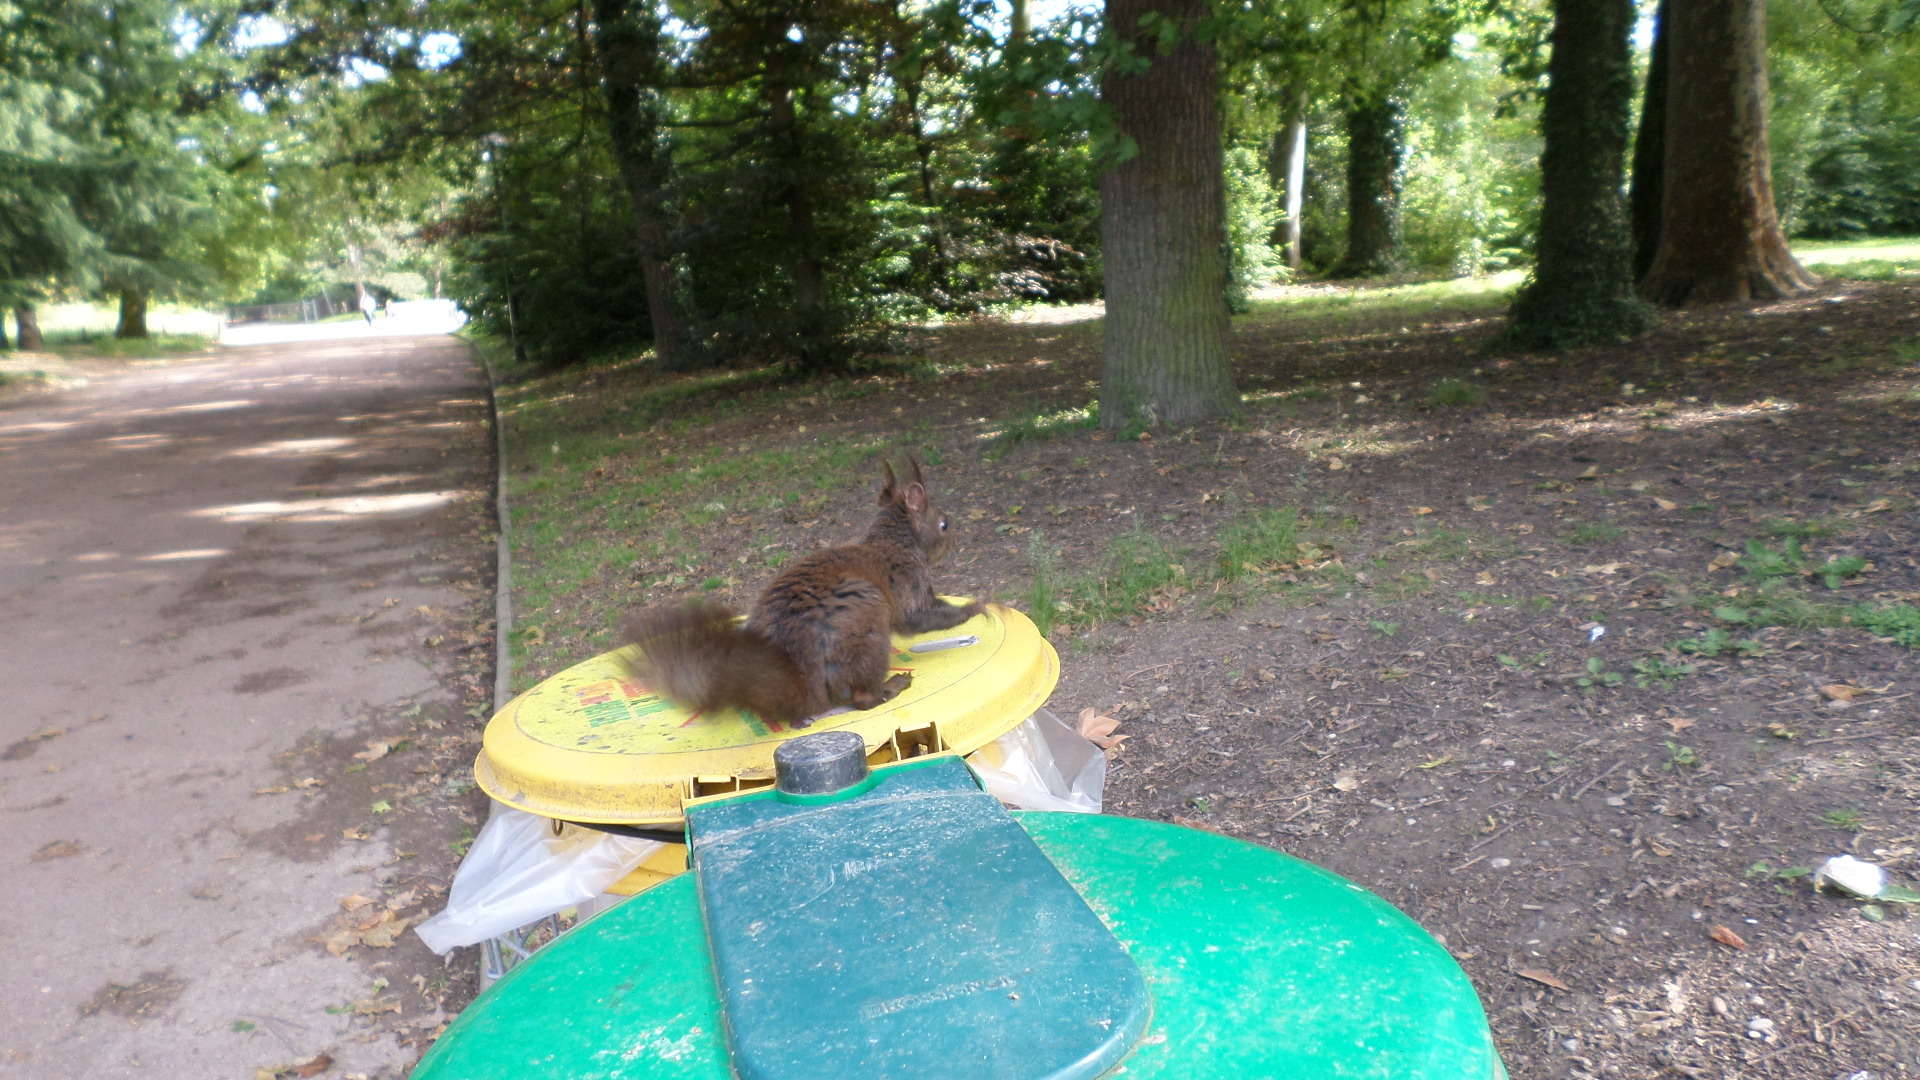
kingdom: Animalia
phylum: Chordata
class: Mammalia
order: Rodentia
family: Sciuridae
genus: Sciurus
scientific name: Sciurus vulgaris
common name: Eurasian red squirrel
